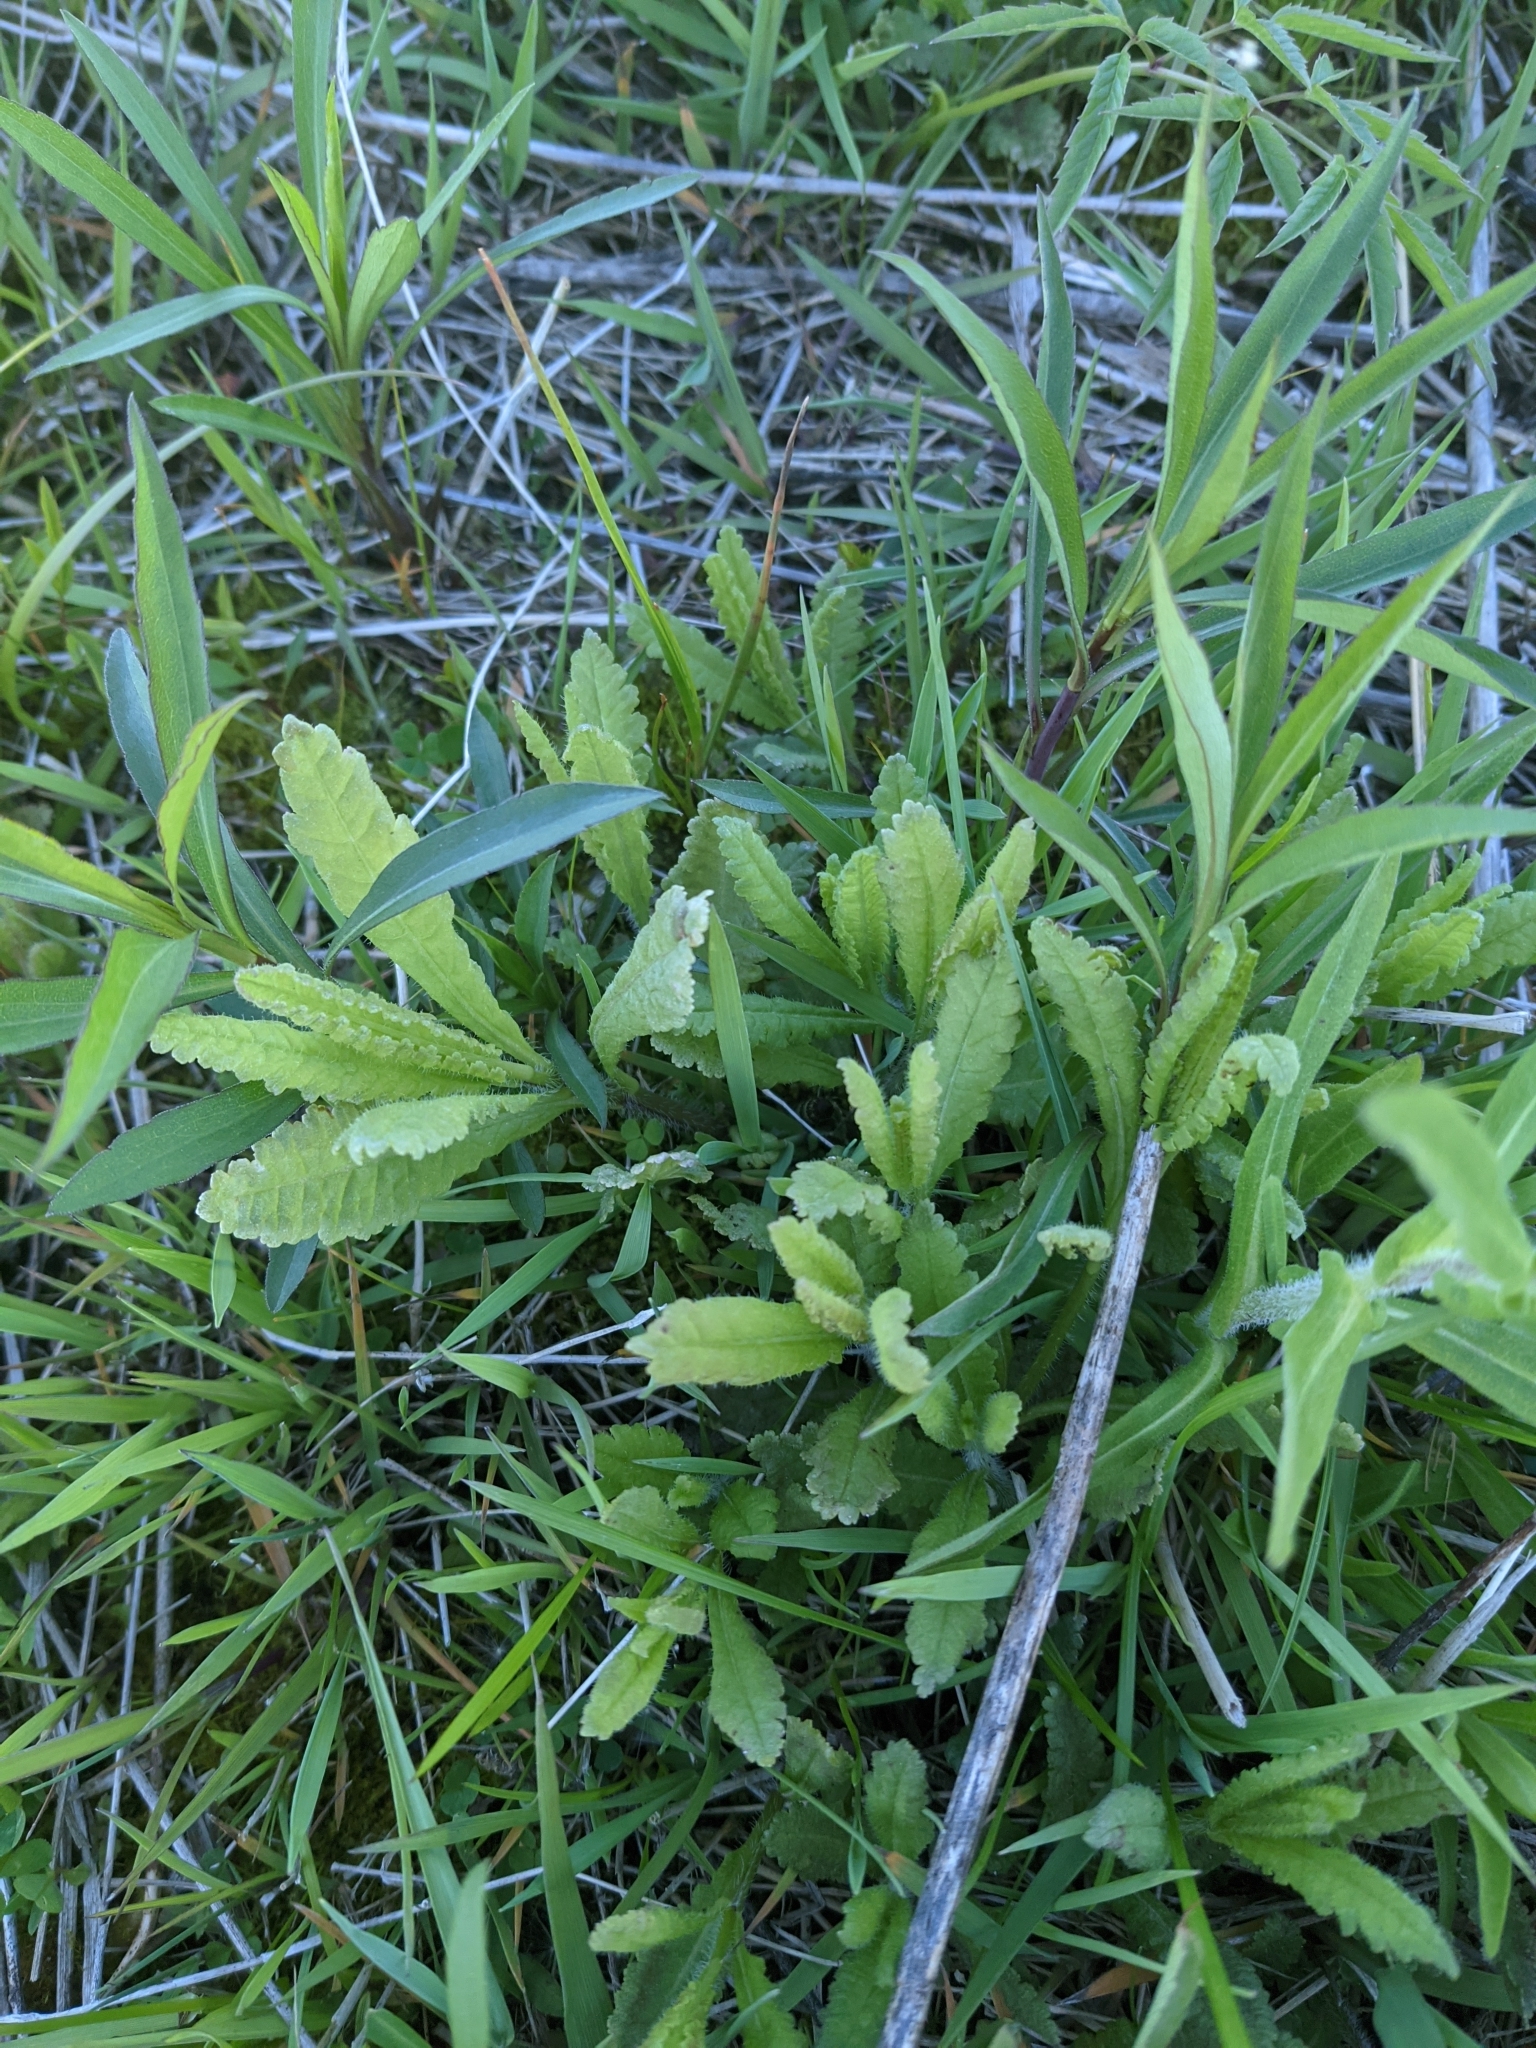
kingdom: Plantae
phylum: Tracheophyta
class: Magnoliopsida
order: Lamiales
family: Orobanchaceae
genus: Pedicularis
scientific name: Pedicularis lanceolata
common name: Swamp lousewort
